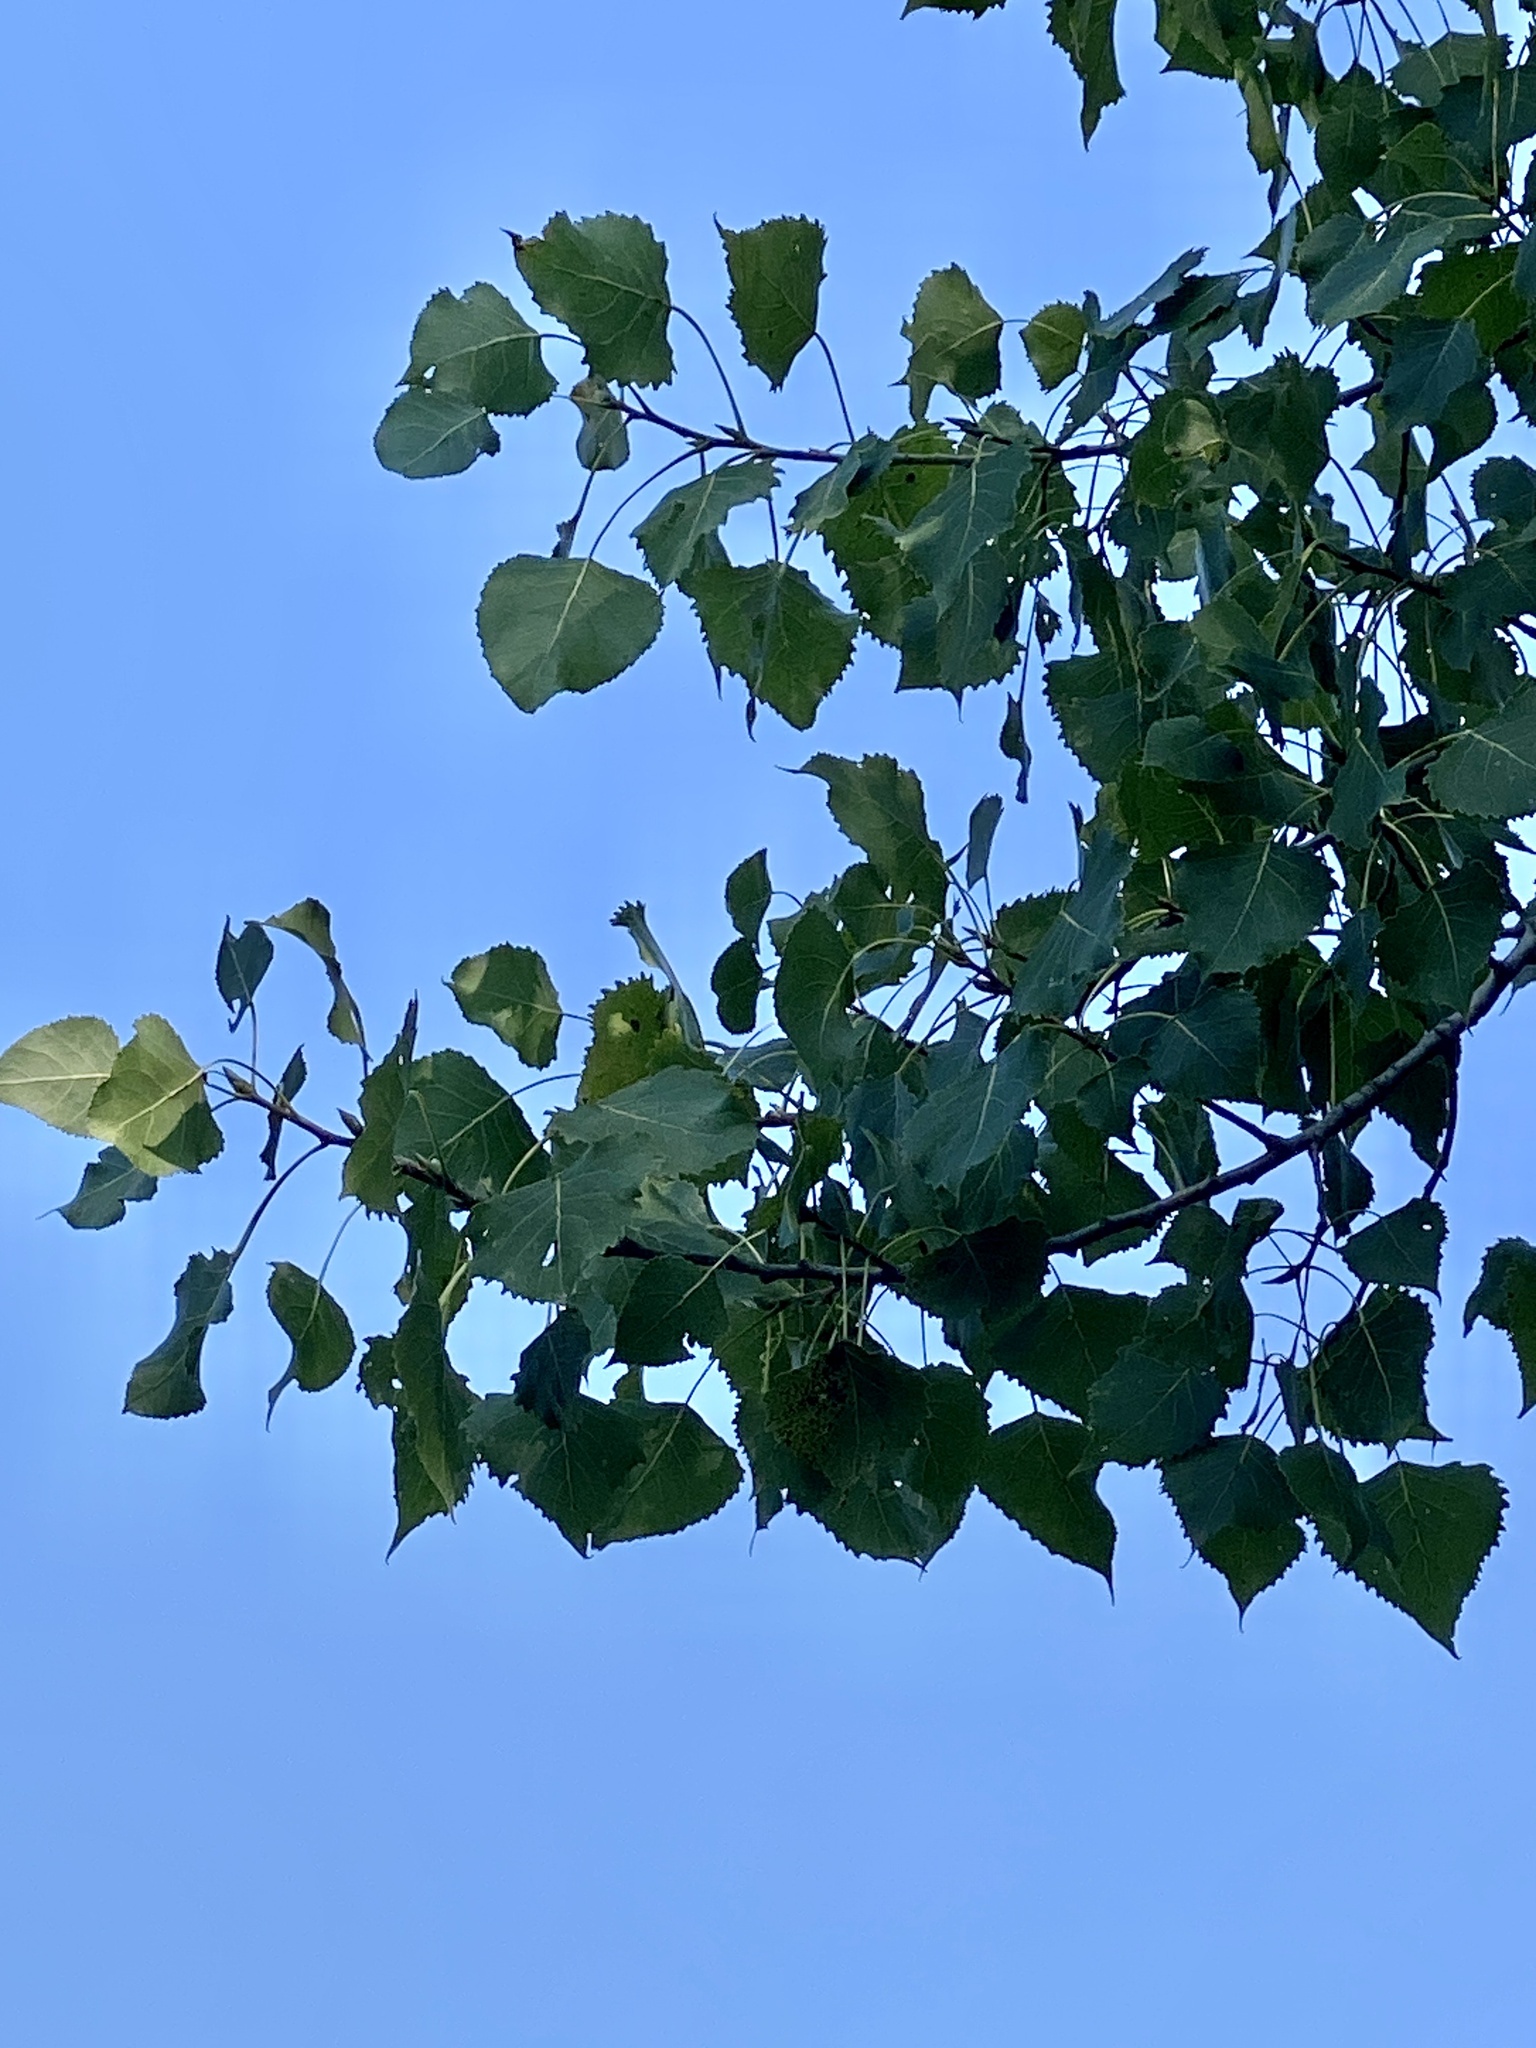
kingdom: Plantae
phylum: Tracheophyta
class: Magnoliopsida
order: Malpighiales
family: Salicaceae
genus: Populus
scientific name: Populus deltoides
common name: Eastern cottonwood
